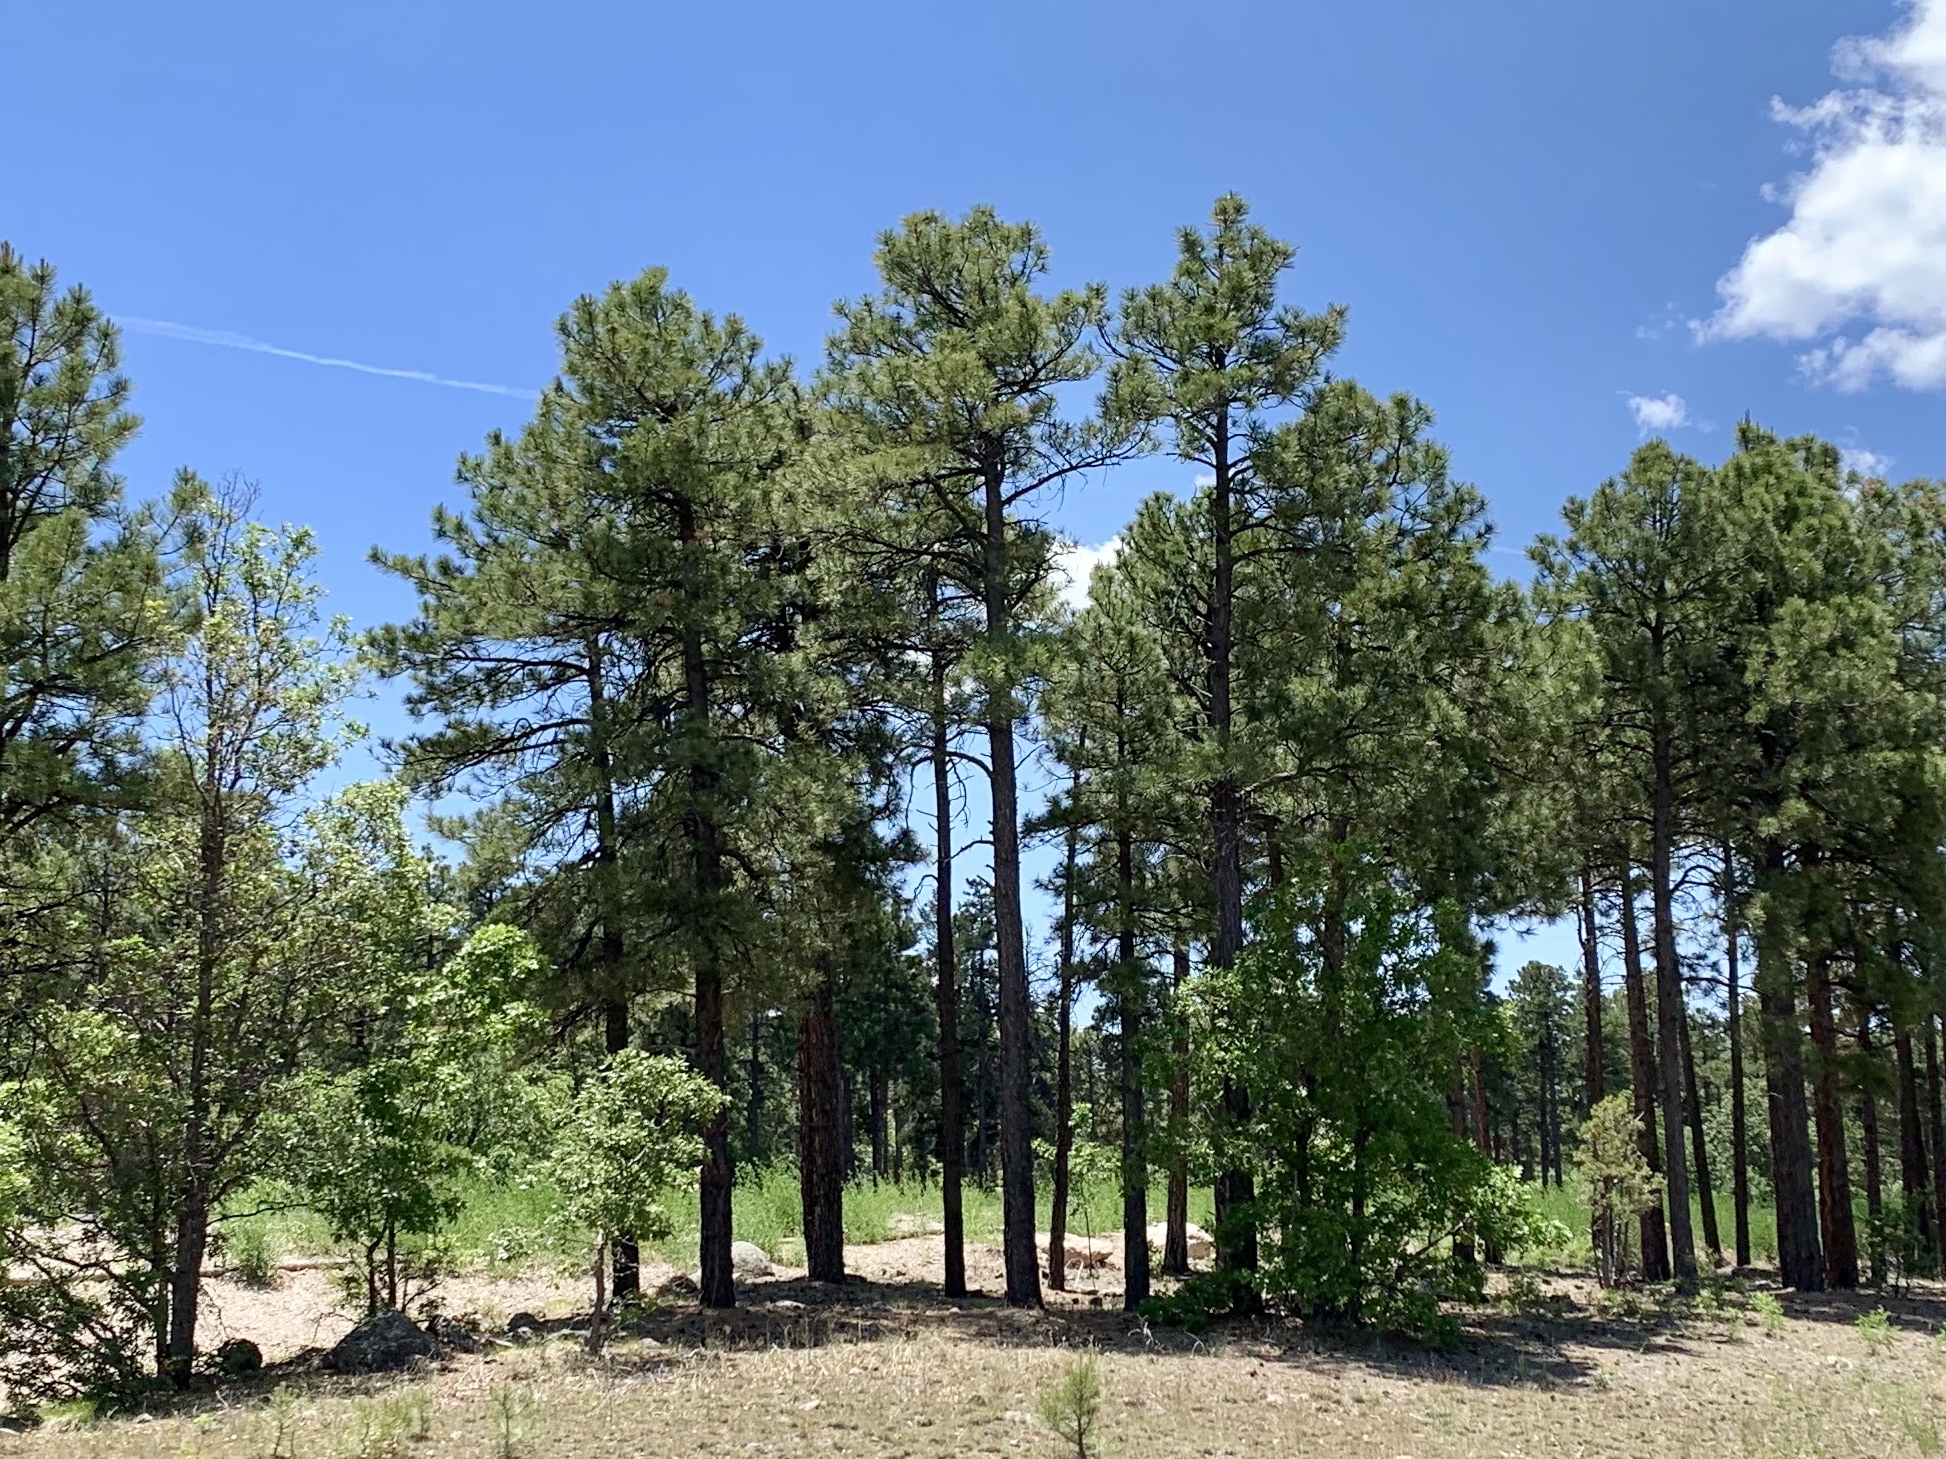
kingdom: Plantae
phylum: Tracheophyta
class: Pinopsida
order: Pinales
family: Pinaceae
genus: Pinus
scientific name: Pinus ponderosa
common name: Western yellow-pine
